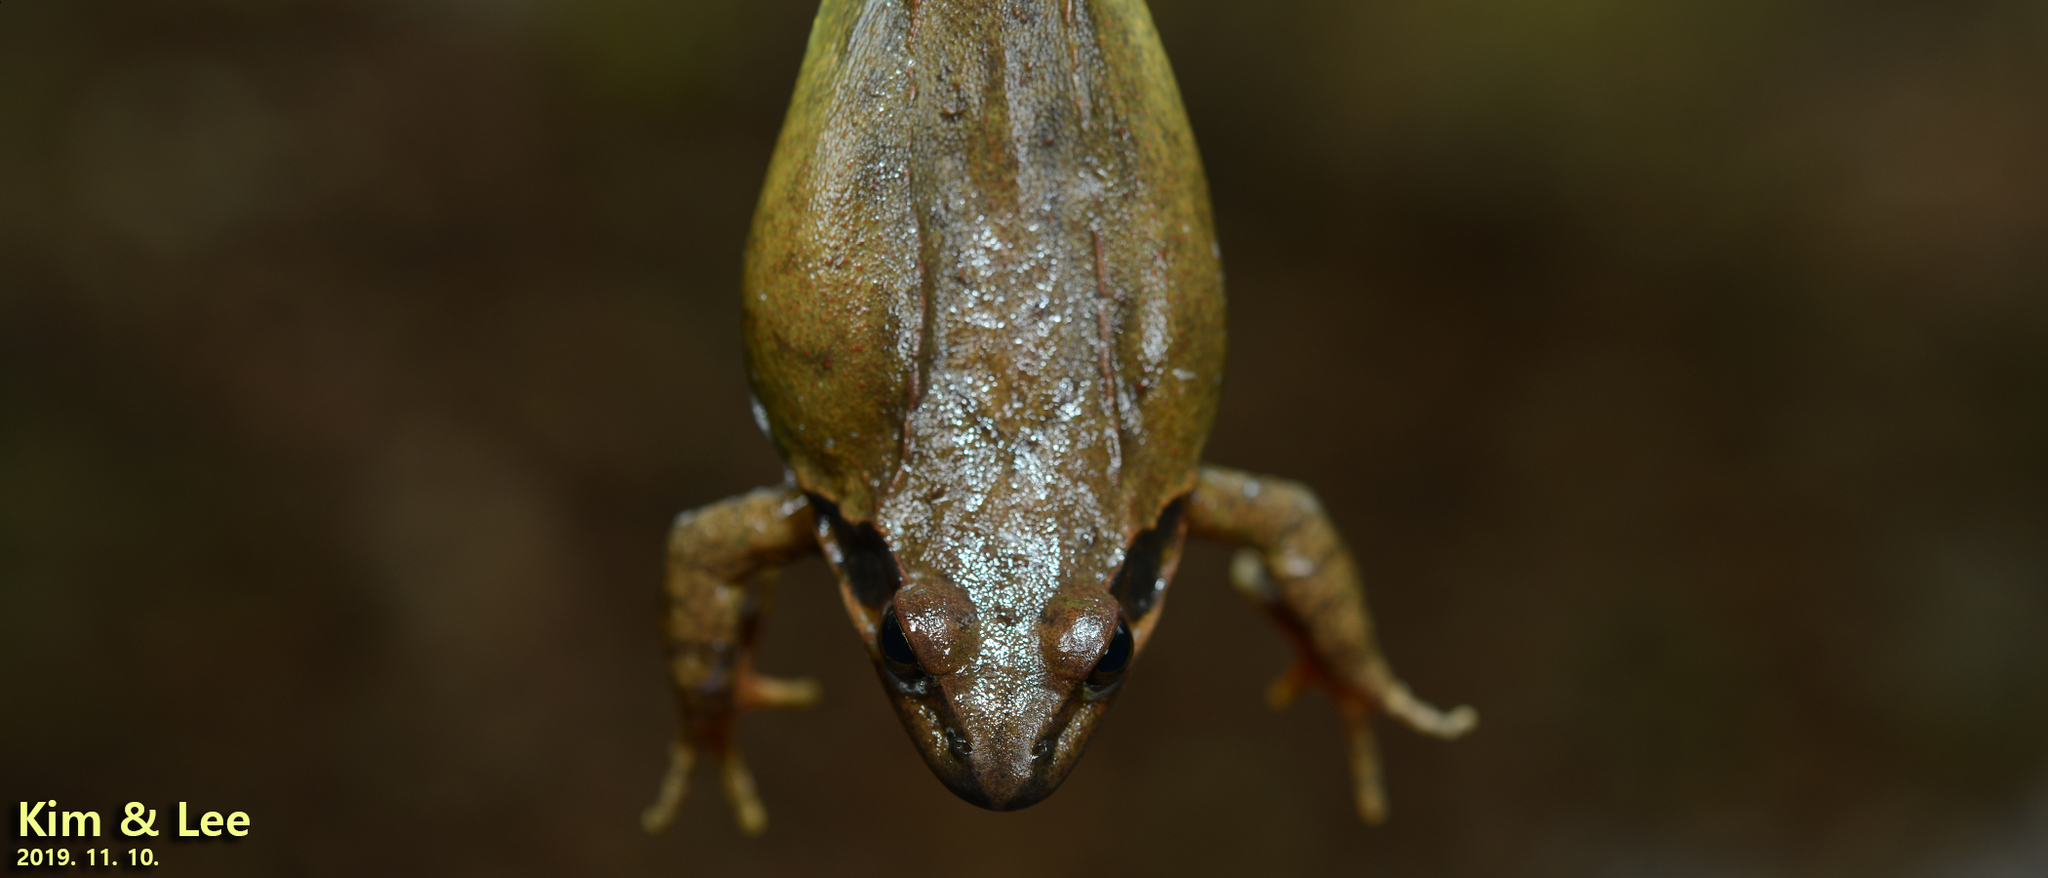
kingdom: Animalia
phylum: Chordata
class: Amphibia
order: Anura
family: Ranidae
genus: Rana
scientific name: Rana uenoi
